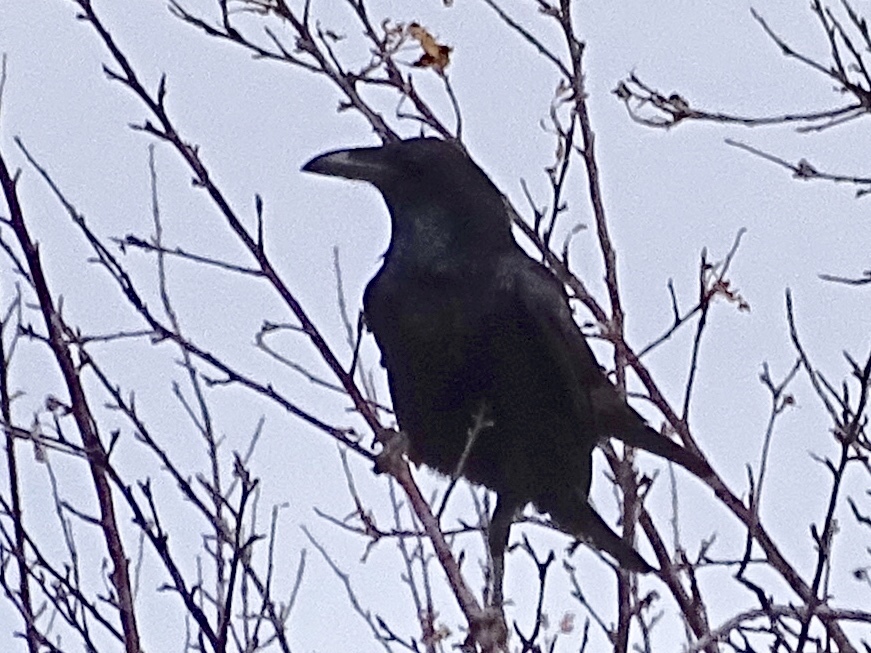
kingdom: Animalia
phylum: Chordata
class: Aves
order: Passeriformes
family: Corvidae
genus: Corvus
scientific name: Corvus corax
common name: Common raven
